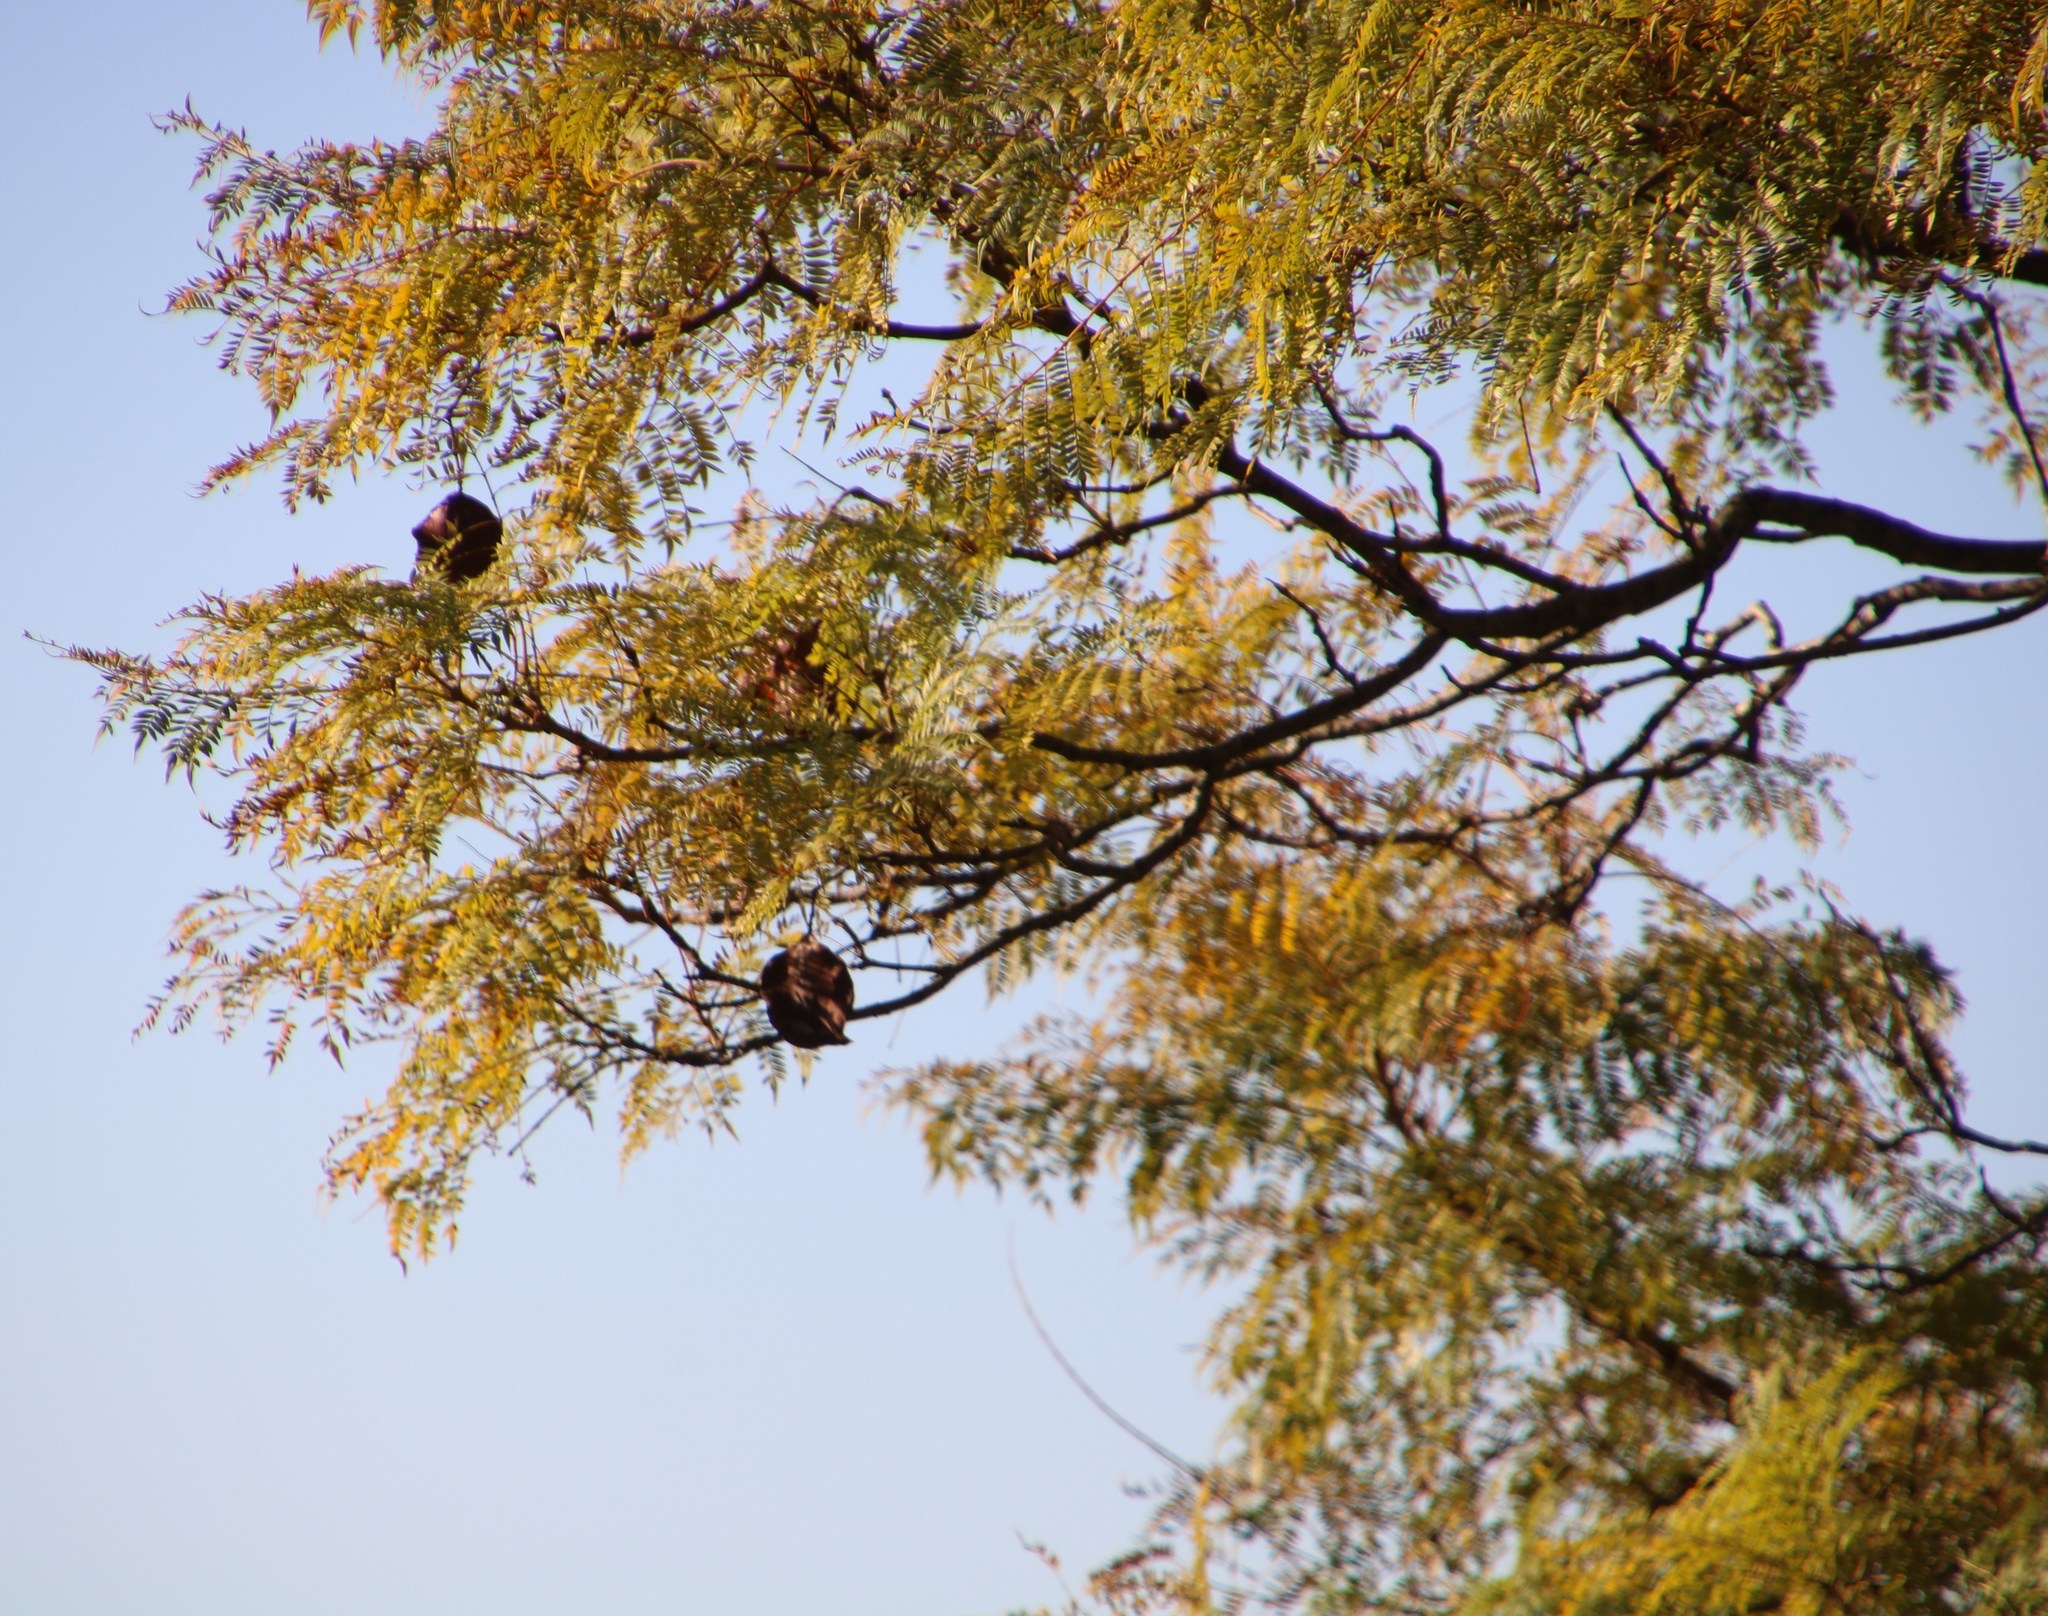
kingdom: Plantae
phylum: Tracheophyta
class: Magnoliopsida
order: Lamiales
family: Bignoniaceae
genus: Jacaranda
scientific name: Jacaranda mimosifolia
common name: Black poui
